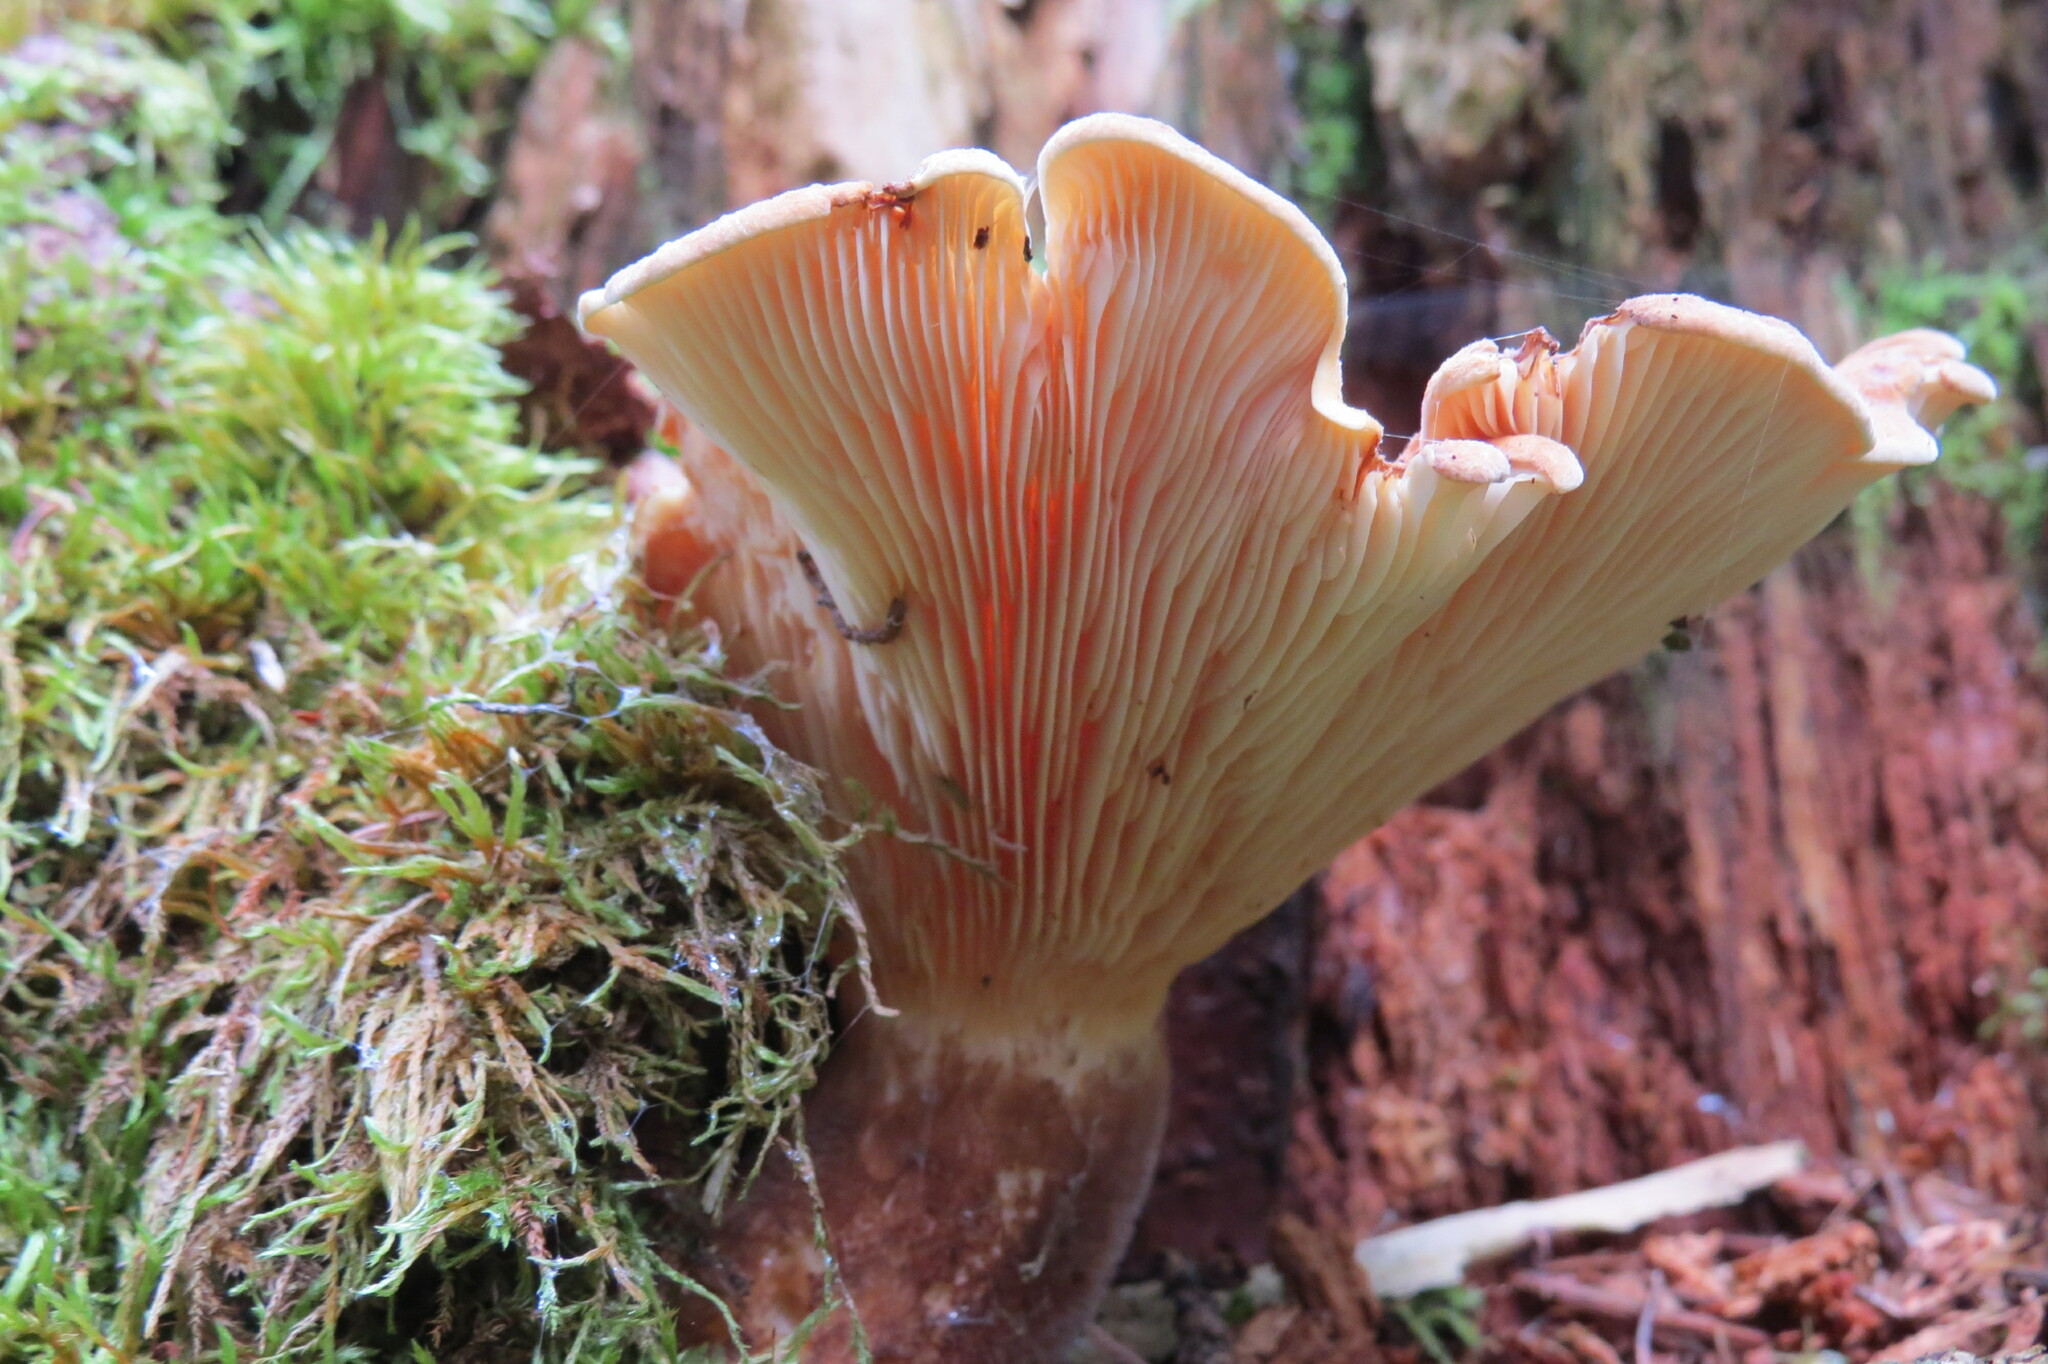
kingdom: Fungi
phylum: Basidiomycota
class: Agaricomycetes
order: Boletales
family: Tapinellaceae
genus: Tapinella
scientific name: Tapinella atrotomentosa
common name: Velvet rollrim
